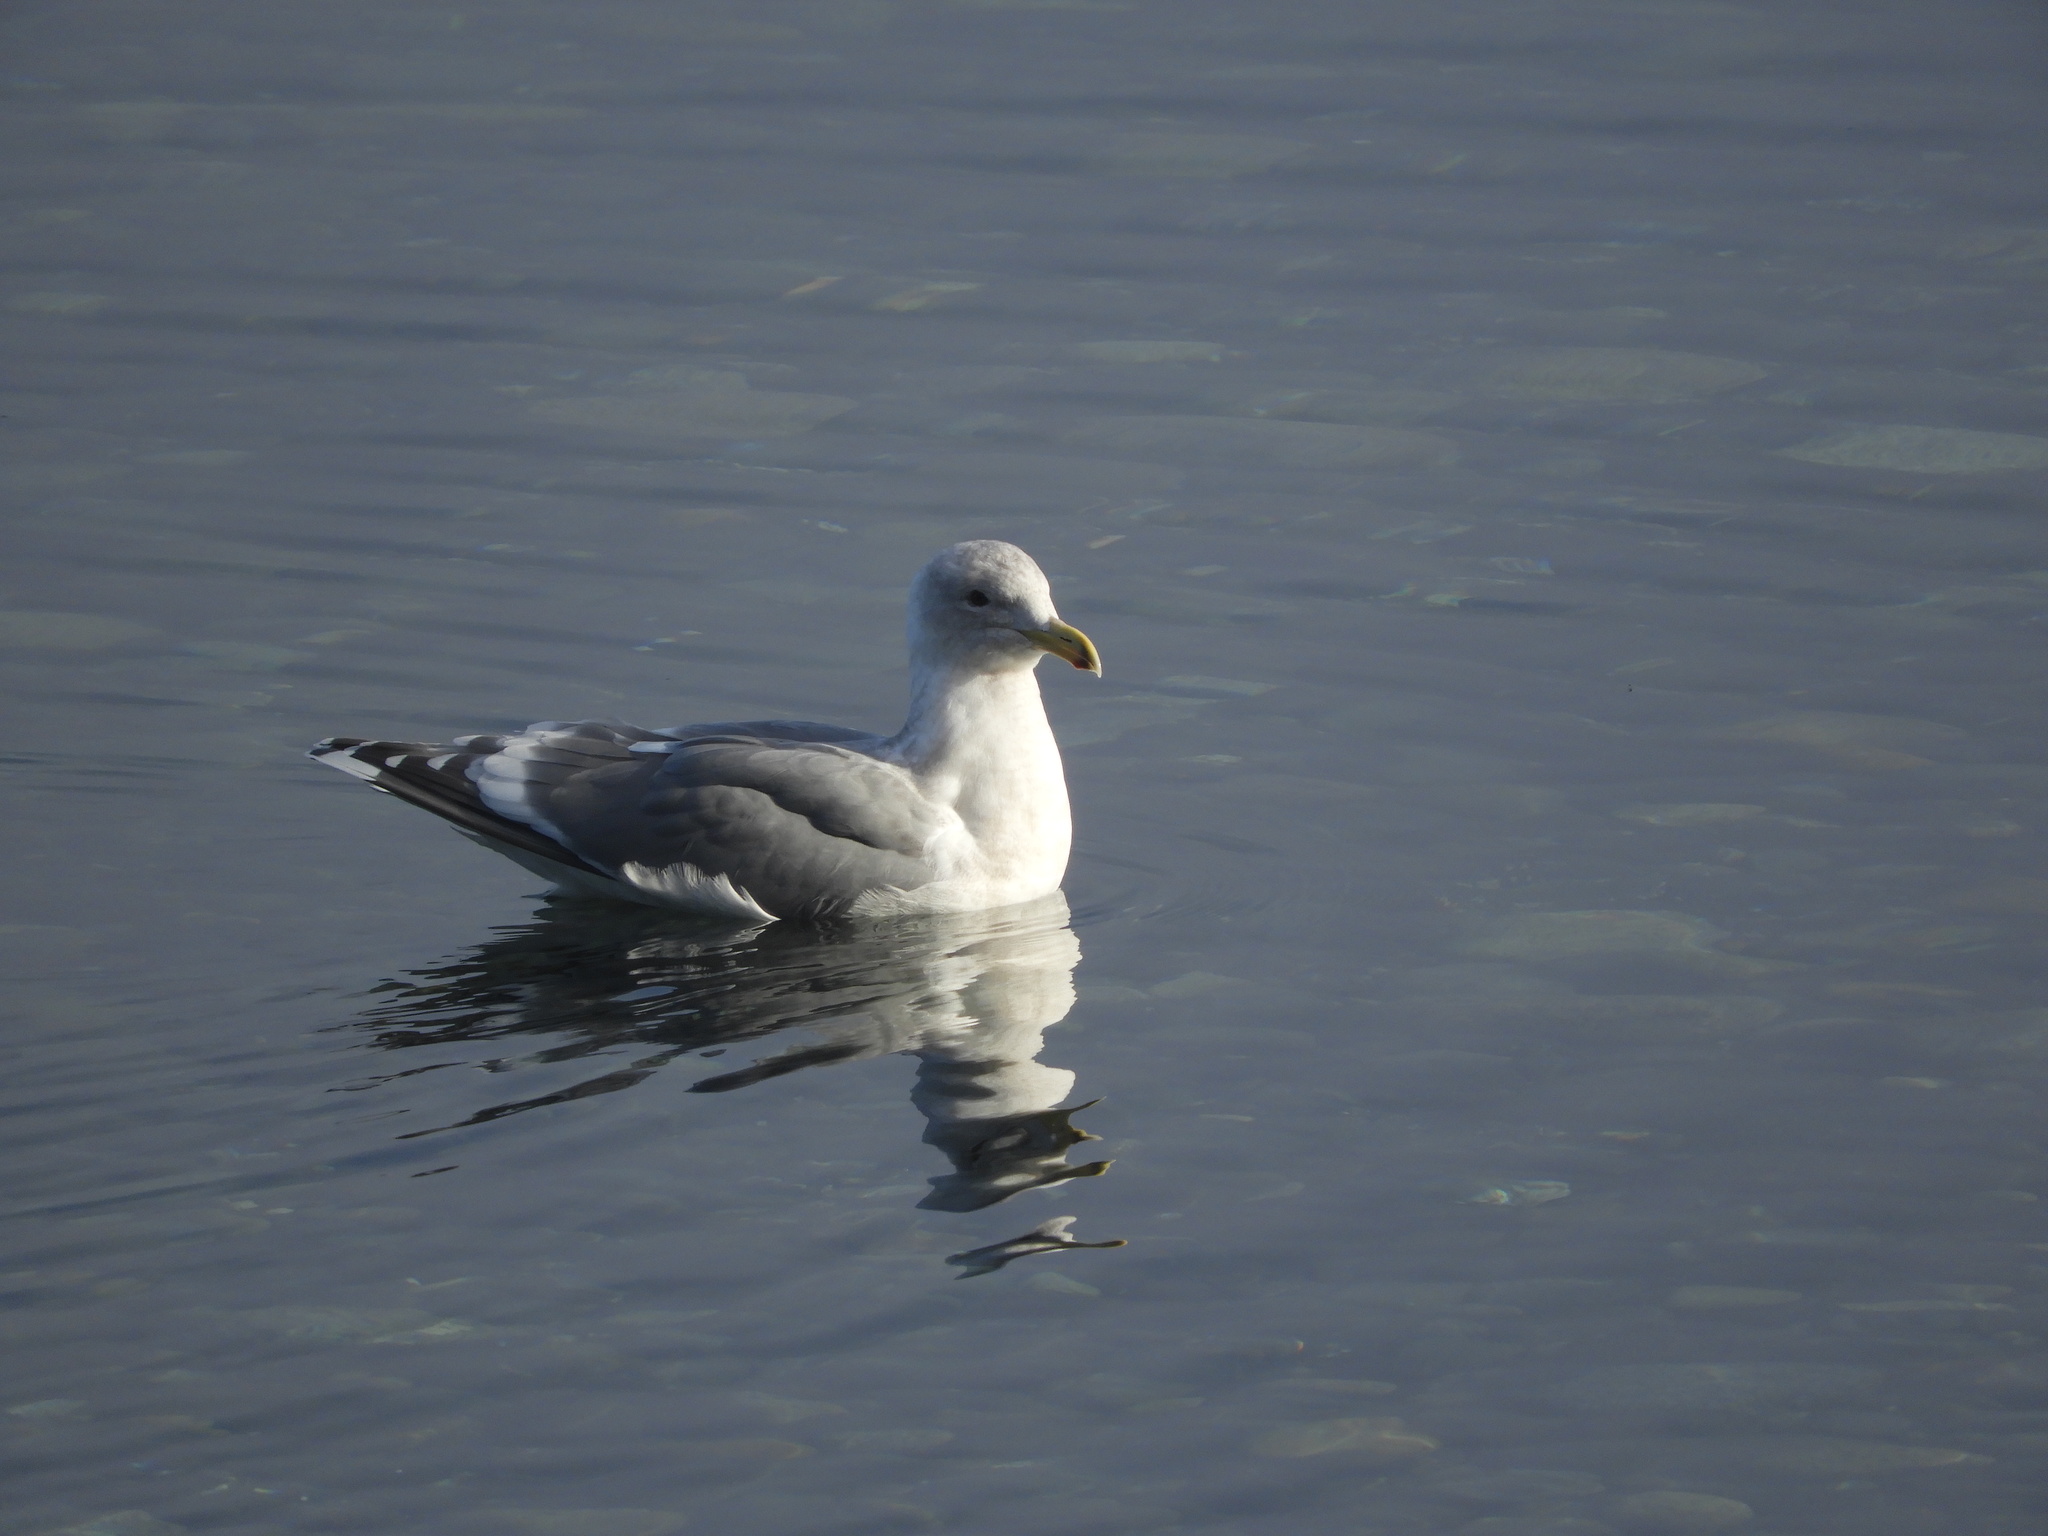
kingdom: Animalia
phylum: Chordata
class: Aves
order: Charadriiformes
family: Laridae
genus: Larus
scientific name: Larus
